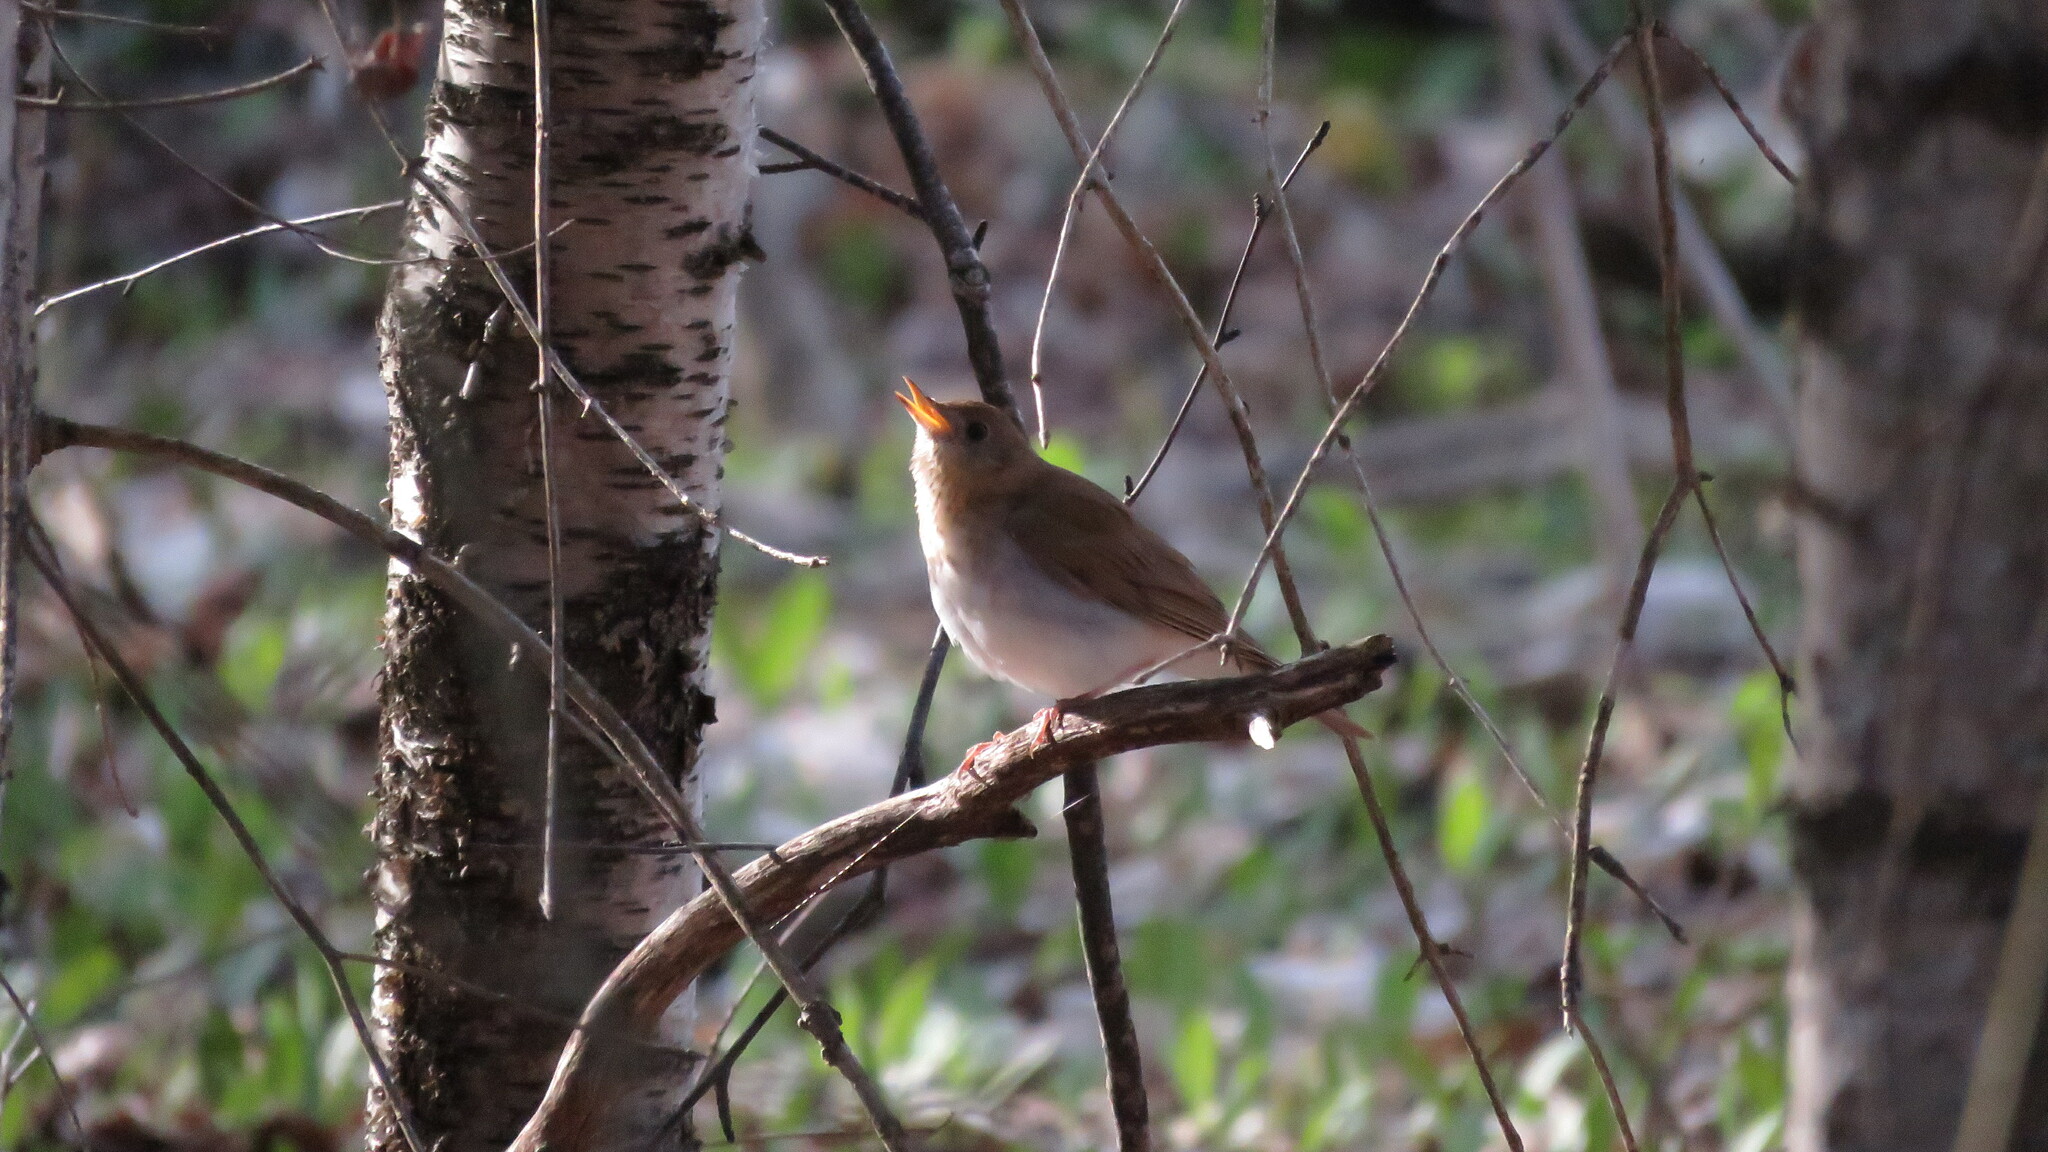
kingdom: Animalia
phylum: Chordata
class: Aves
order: Passeriformes
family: Turdidae
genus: Catharus
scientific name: Catharus fuscescens
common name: Veery
